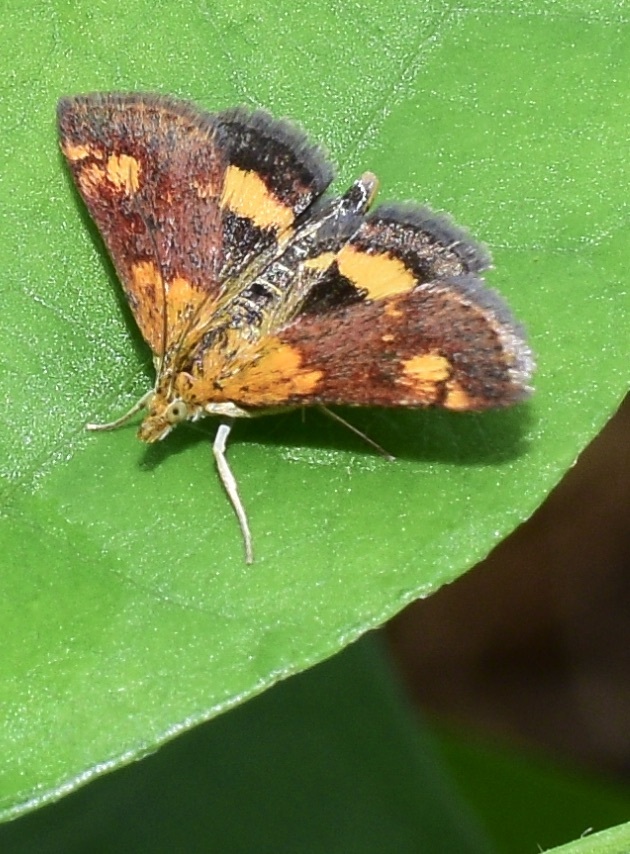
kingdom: Animalia
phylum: Arthropoda
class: Insecta
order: Lepidoptera
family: Crambidae
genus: Pyrausta
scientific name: Pyrausta orphisalis
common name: Orange mint moth
